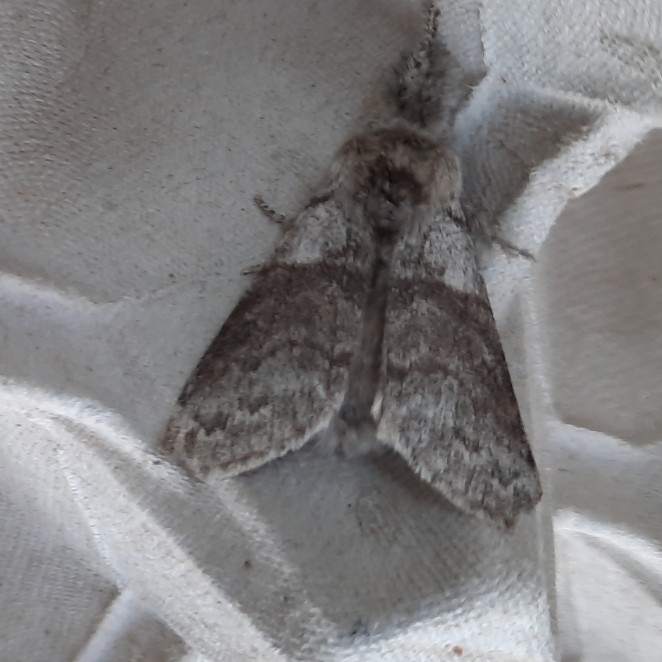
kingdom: Animalia
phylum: Arthropoda
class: Insecta
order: Lepidoptera
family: Erebidae
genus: Calliteara
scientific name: Calliteara pudibunda
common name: Pale tussock
